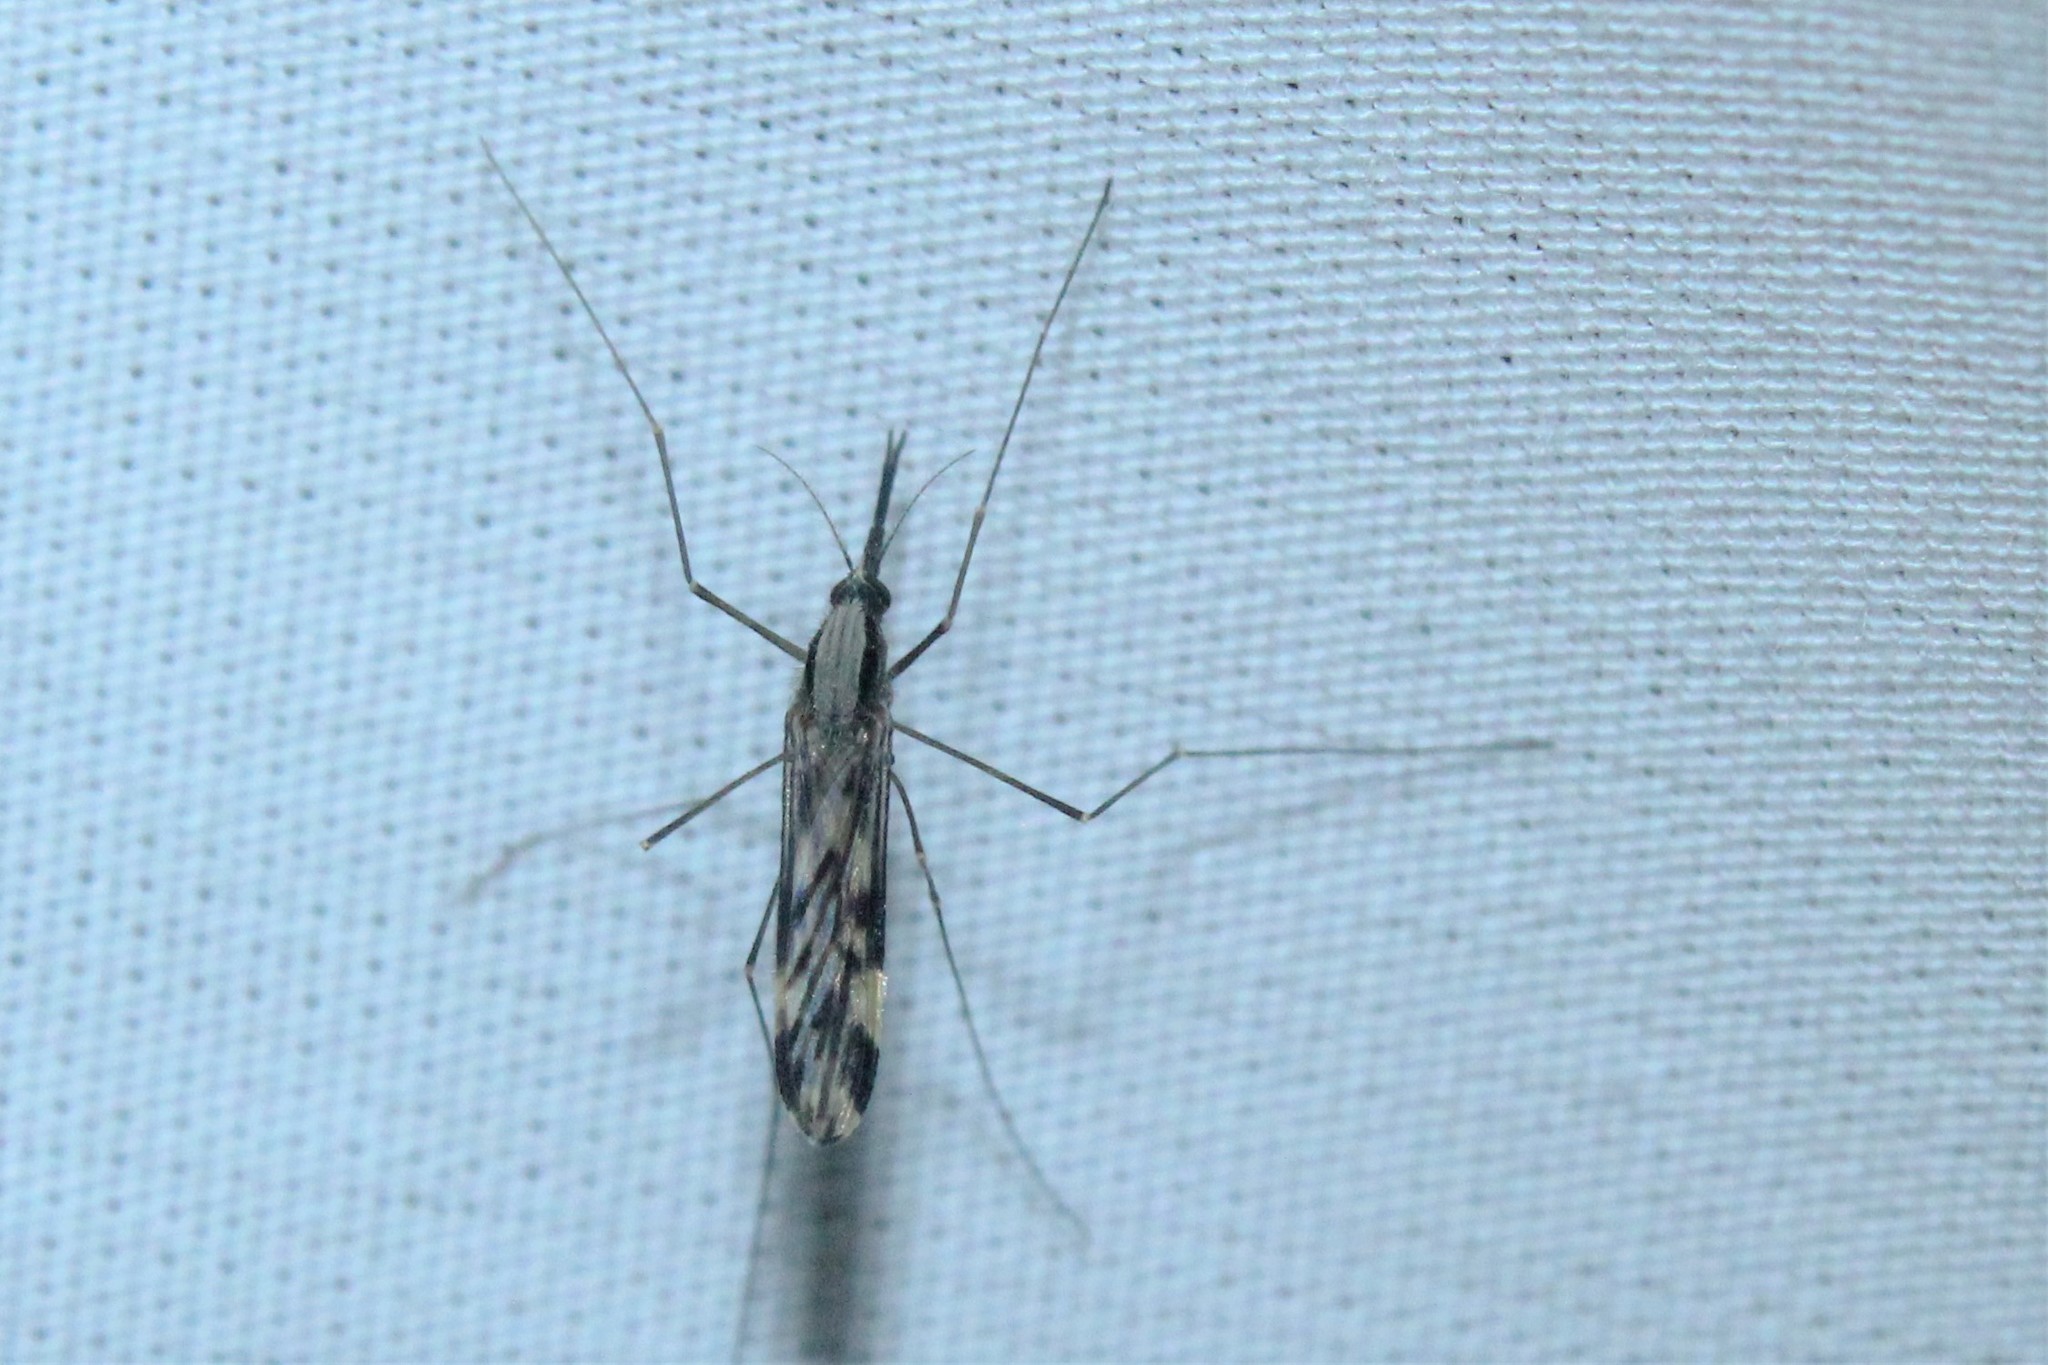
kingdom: Animalia
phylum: Arthropoda
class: Insecta
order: Diptera
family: Culicidae
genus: Anopheles
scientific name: Anopheles punctipennis
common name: Woodland malaria mosquito
